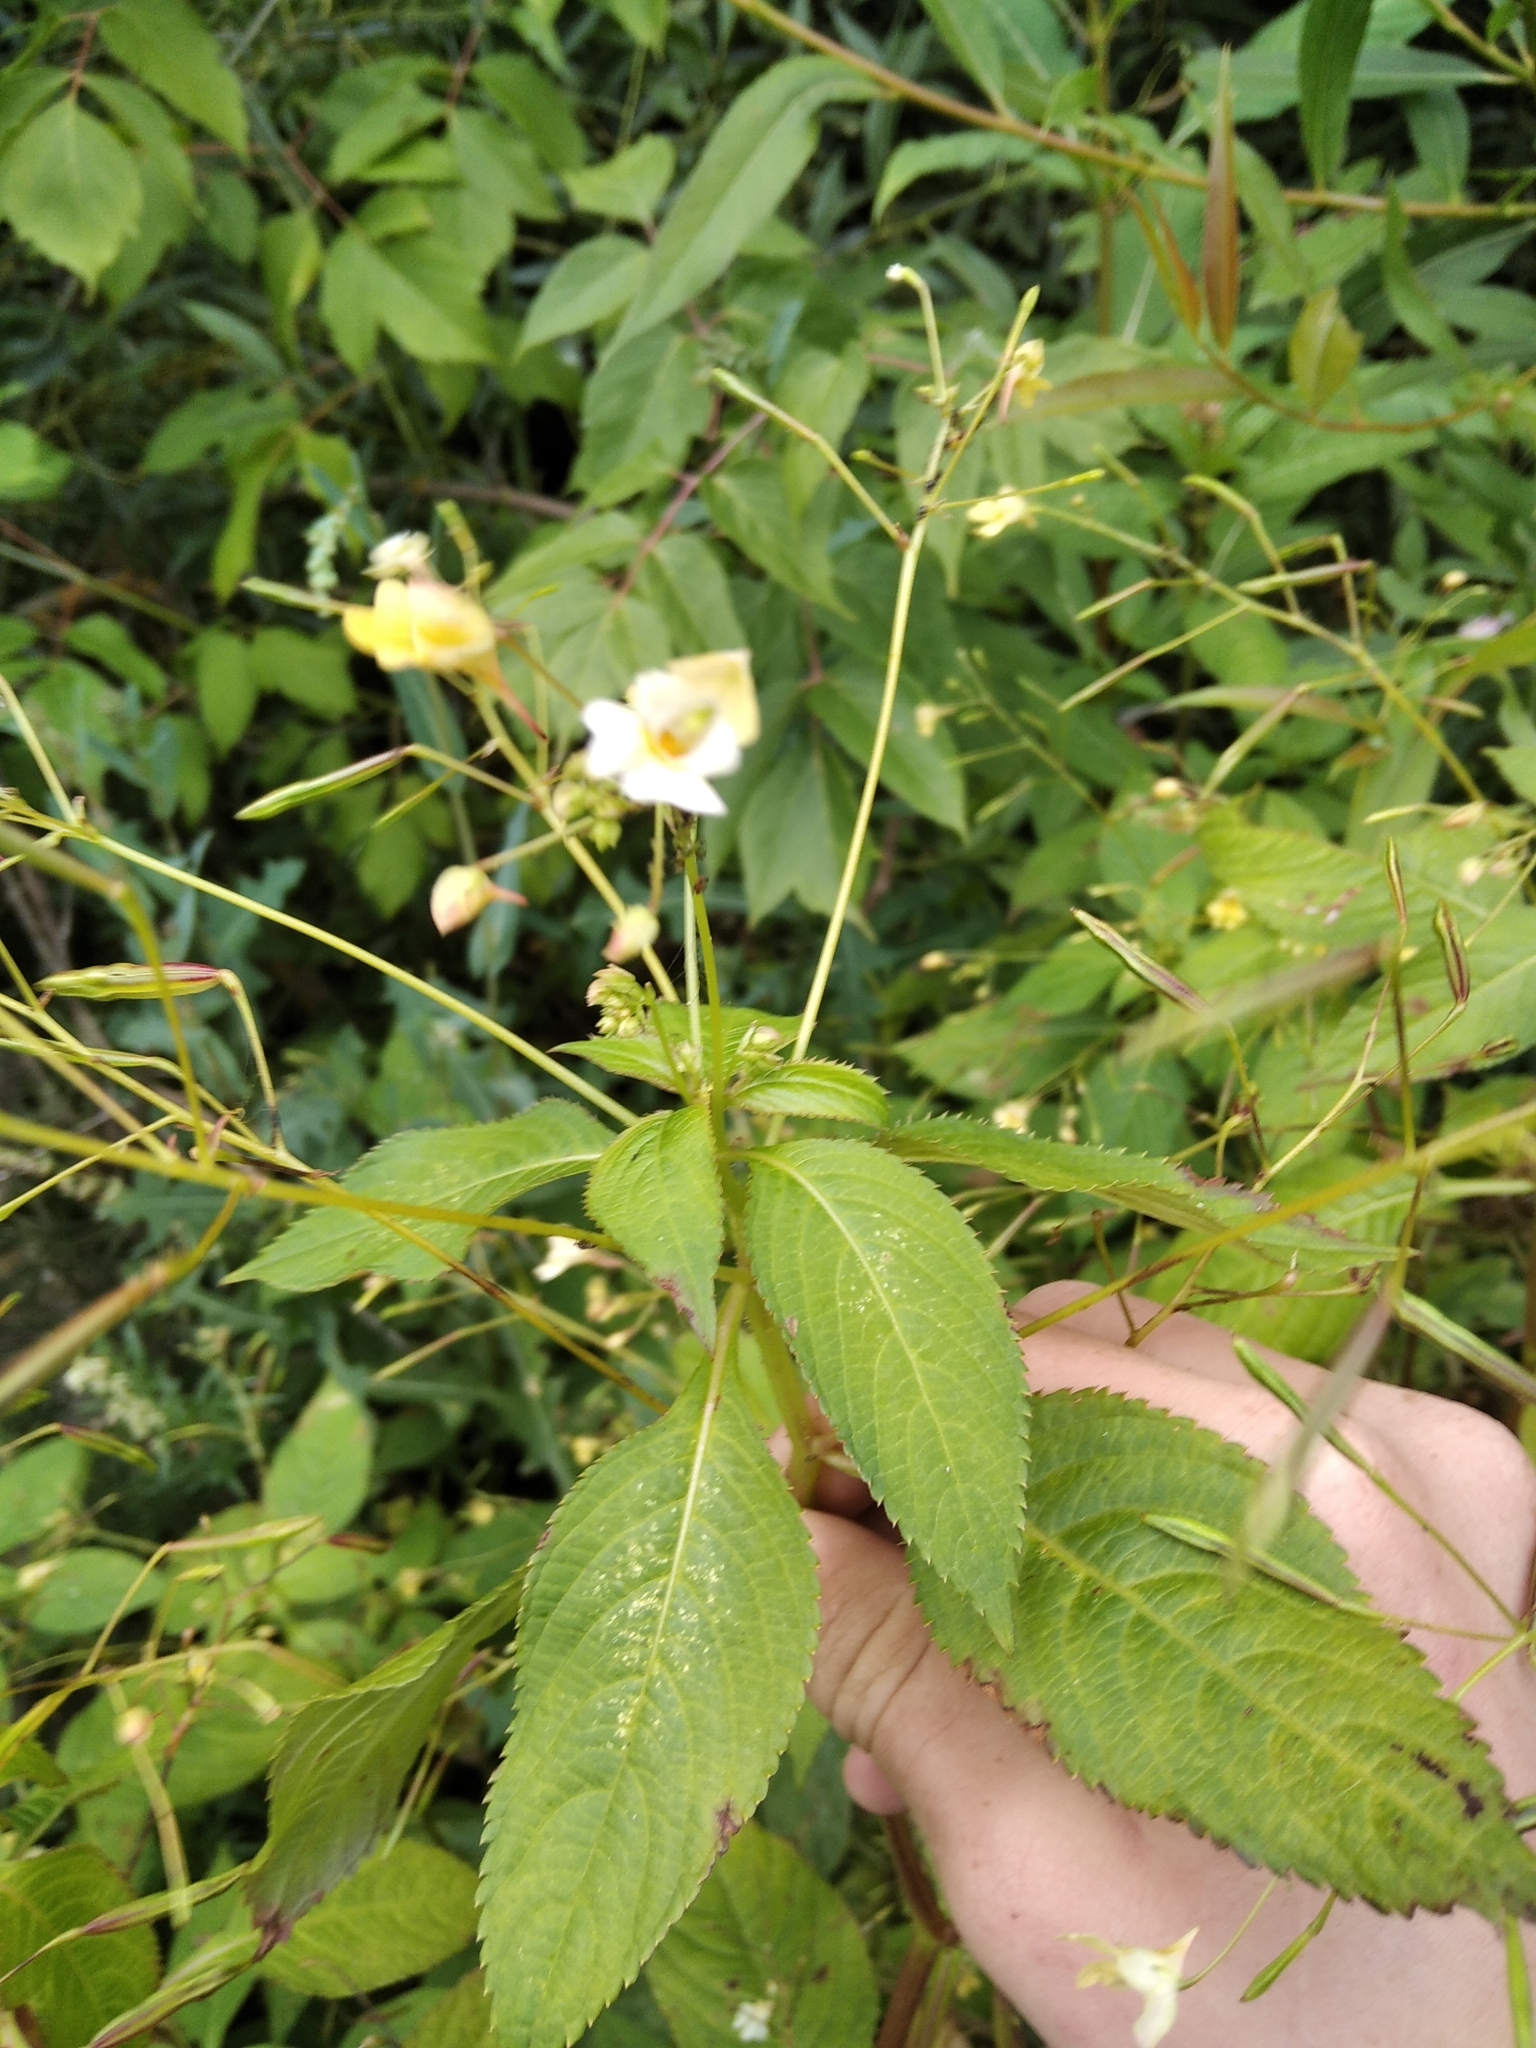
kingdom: Plantae
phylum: Tracheophyta
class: Magnoliopsida
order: Ericales
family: Balsaminaceae
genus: Impatiens
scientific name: Impatiens parviflora
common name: Small balsam
